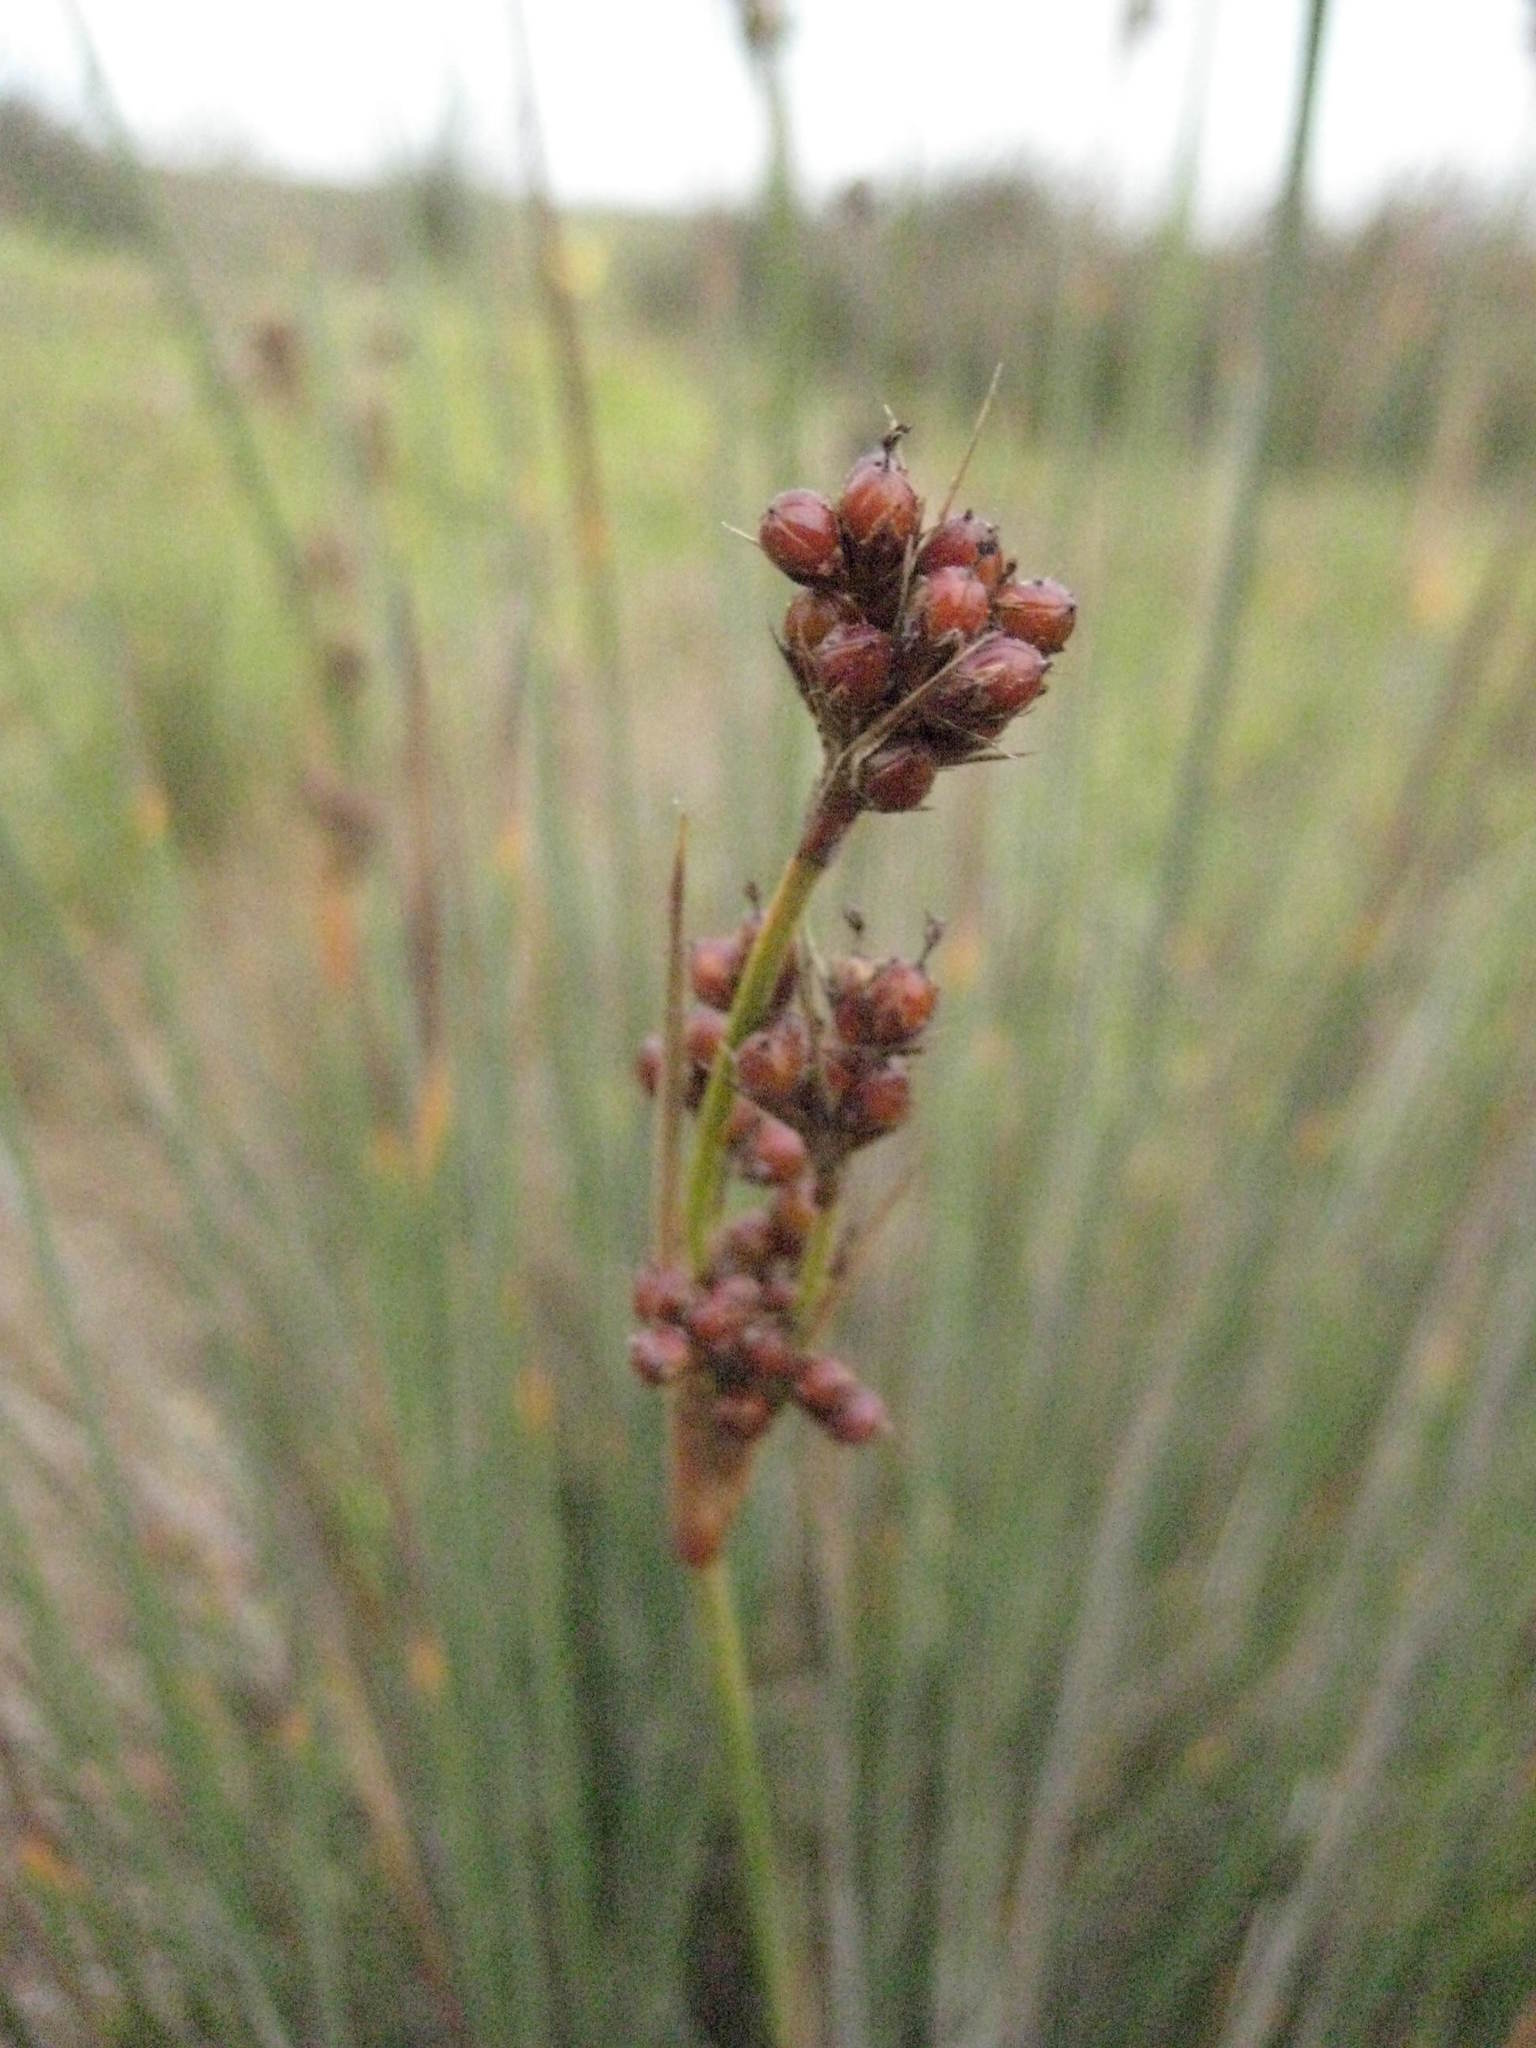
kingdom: Plantae
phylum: Tracheophyta
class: Liliopsida
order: Poales
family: Juncaceae
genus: Juncus
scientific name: Juncus acutus
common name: Sharp rush
